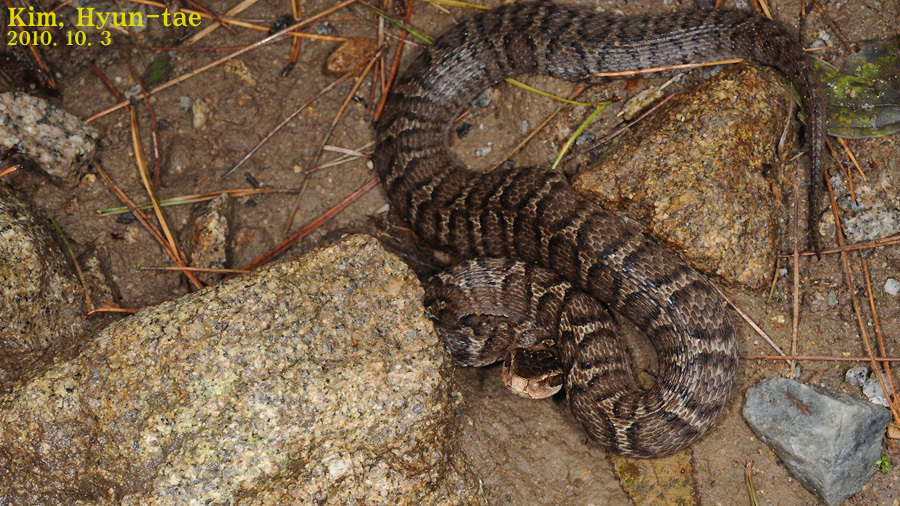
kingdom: Animalia
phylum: Chordata
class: Squamata
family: Viperidae
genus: Gloydius
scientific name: Gloydius ussuriensis
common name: Ussuri mamushi
